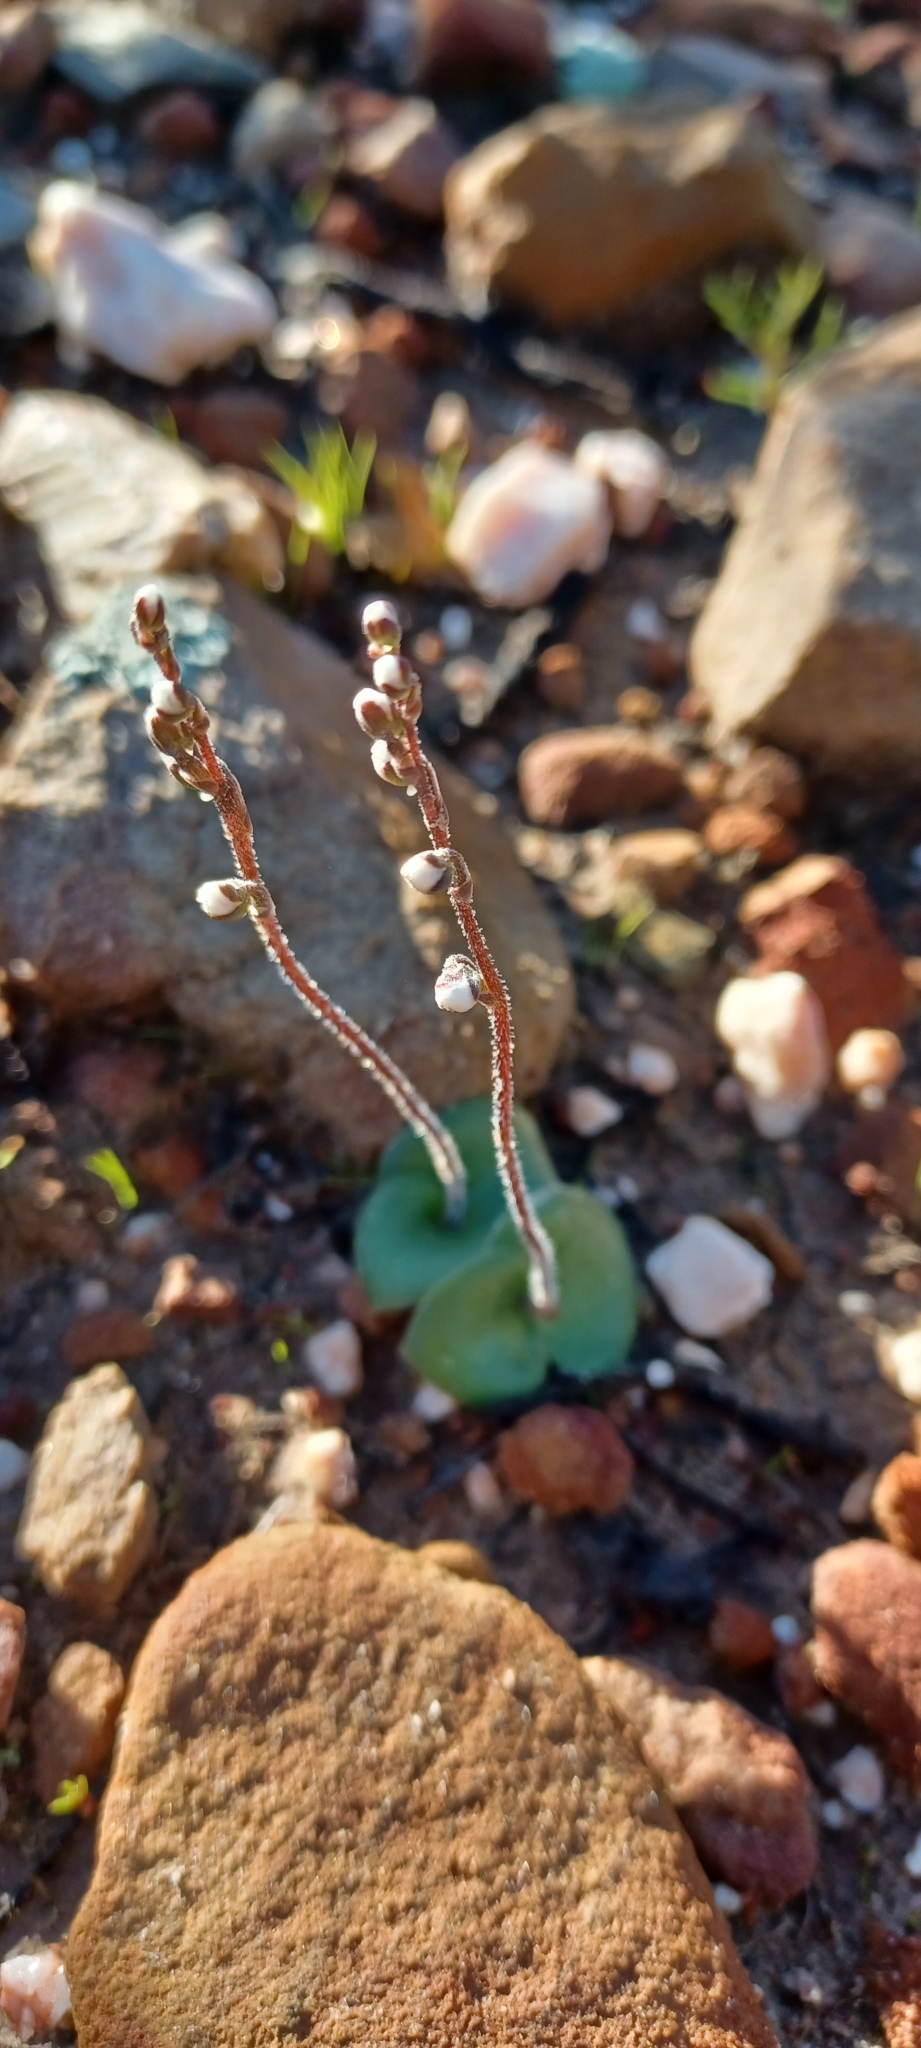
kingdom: Plantae
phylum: Tracheophyta
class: Liliopsida
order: Asparagales
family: Orchidaceae
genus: Holothrix
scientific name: Holothrix aspera
